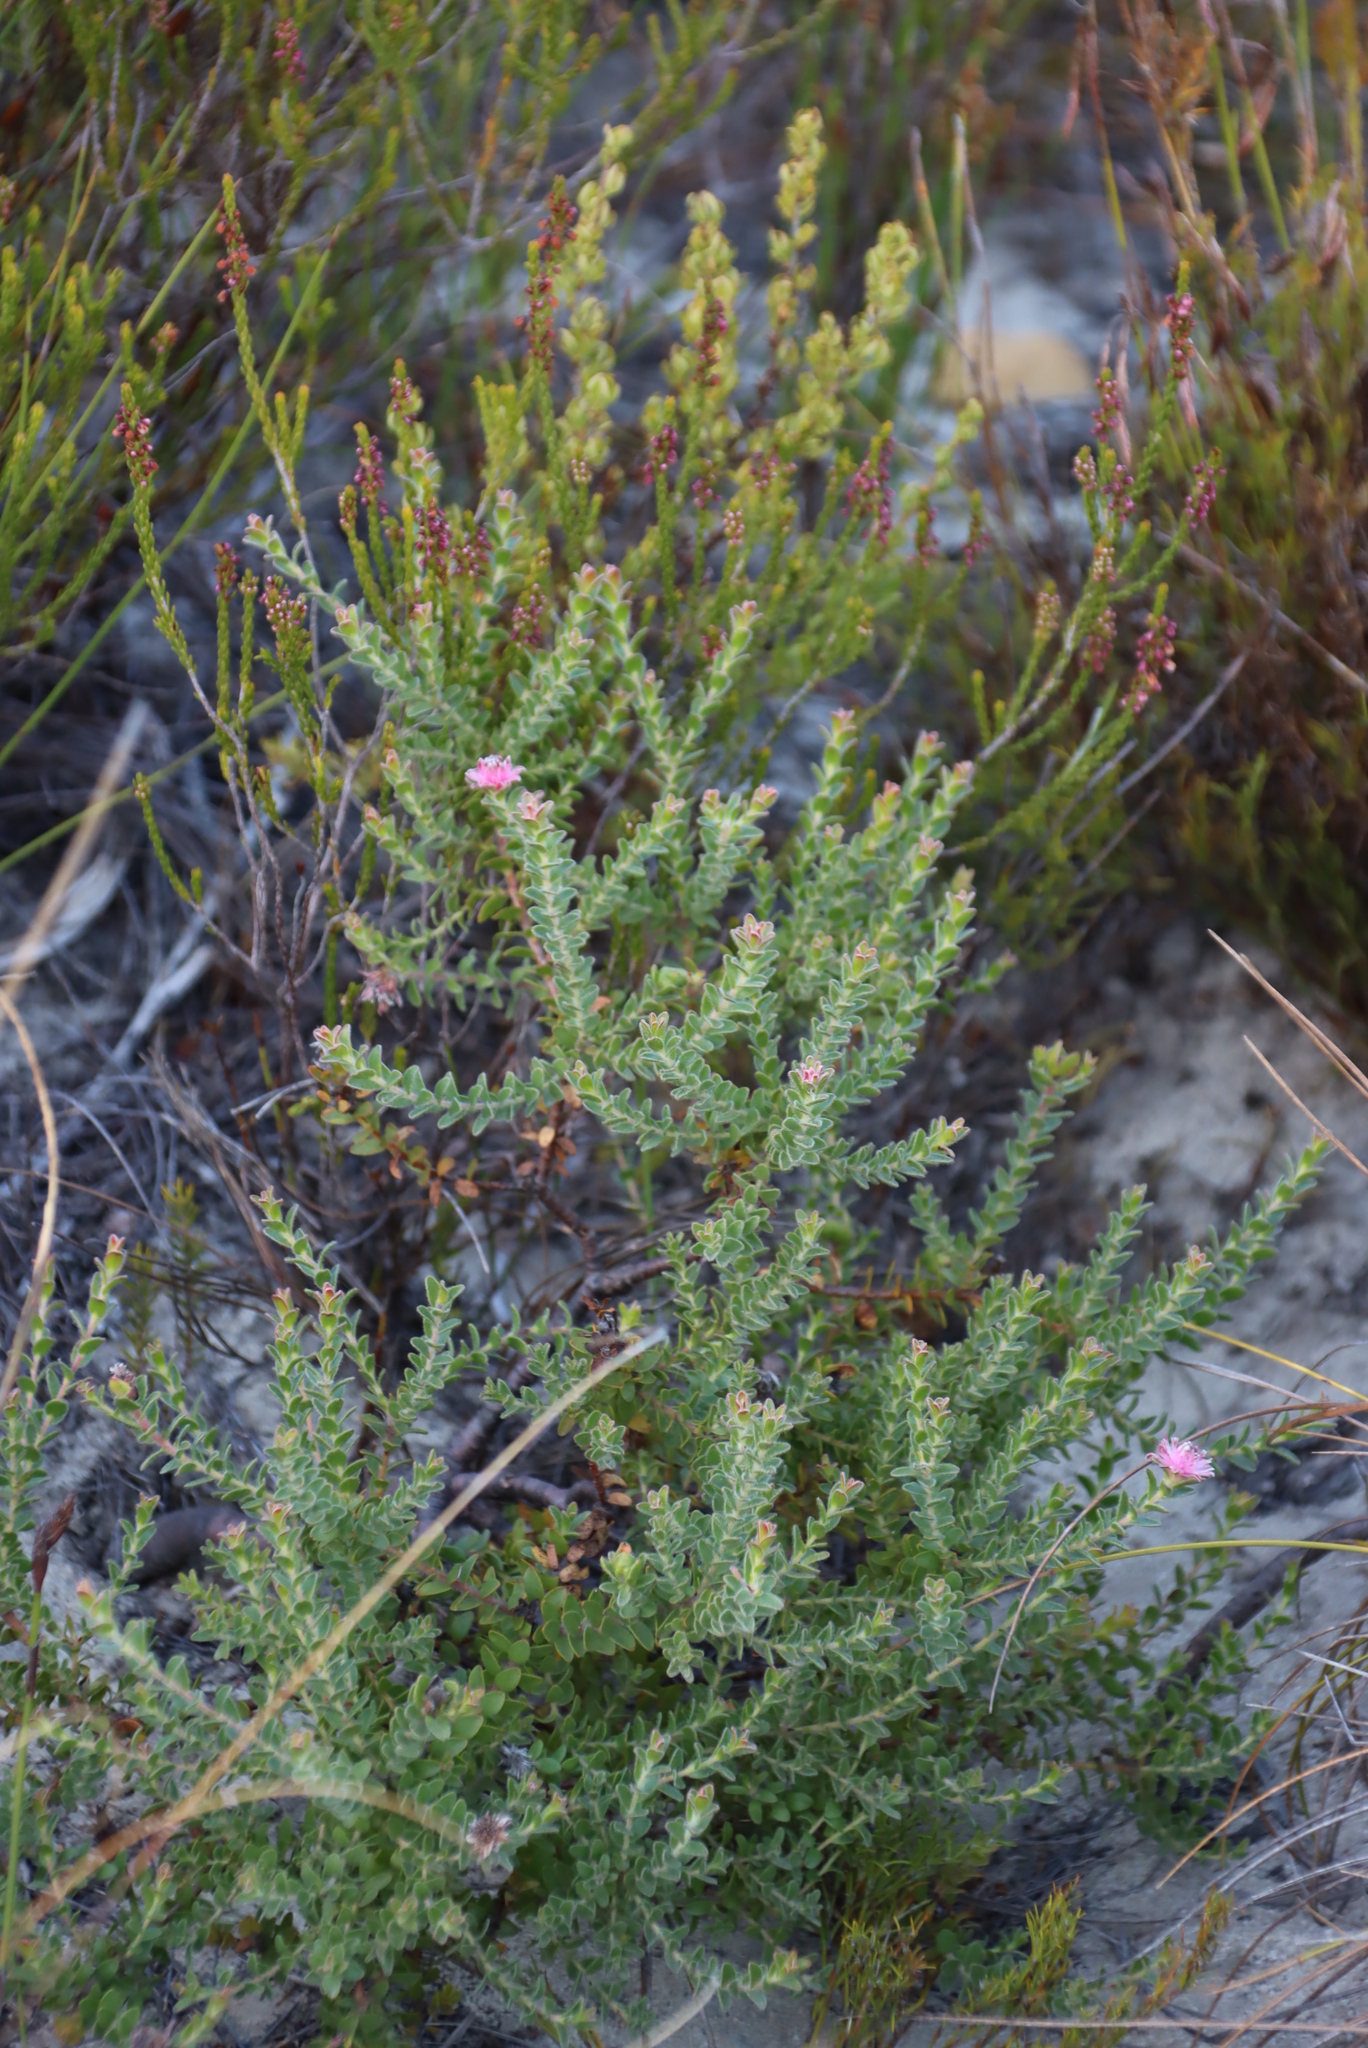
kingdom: Plantae
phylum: Tracheophyta
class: Magnoliopsida
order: Proteales
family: Proteaceae
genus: Diastella
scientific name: Diastella divaricata
